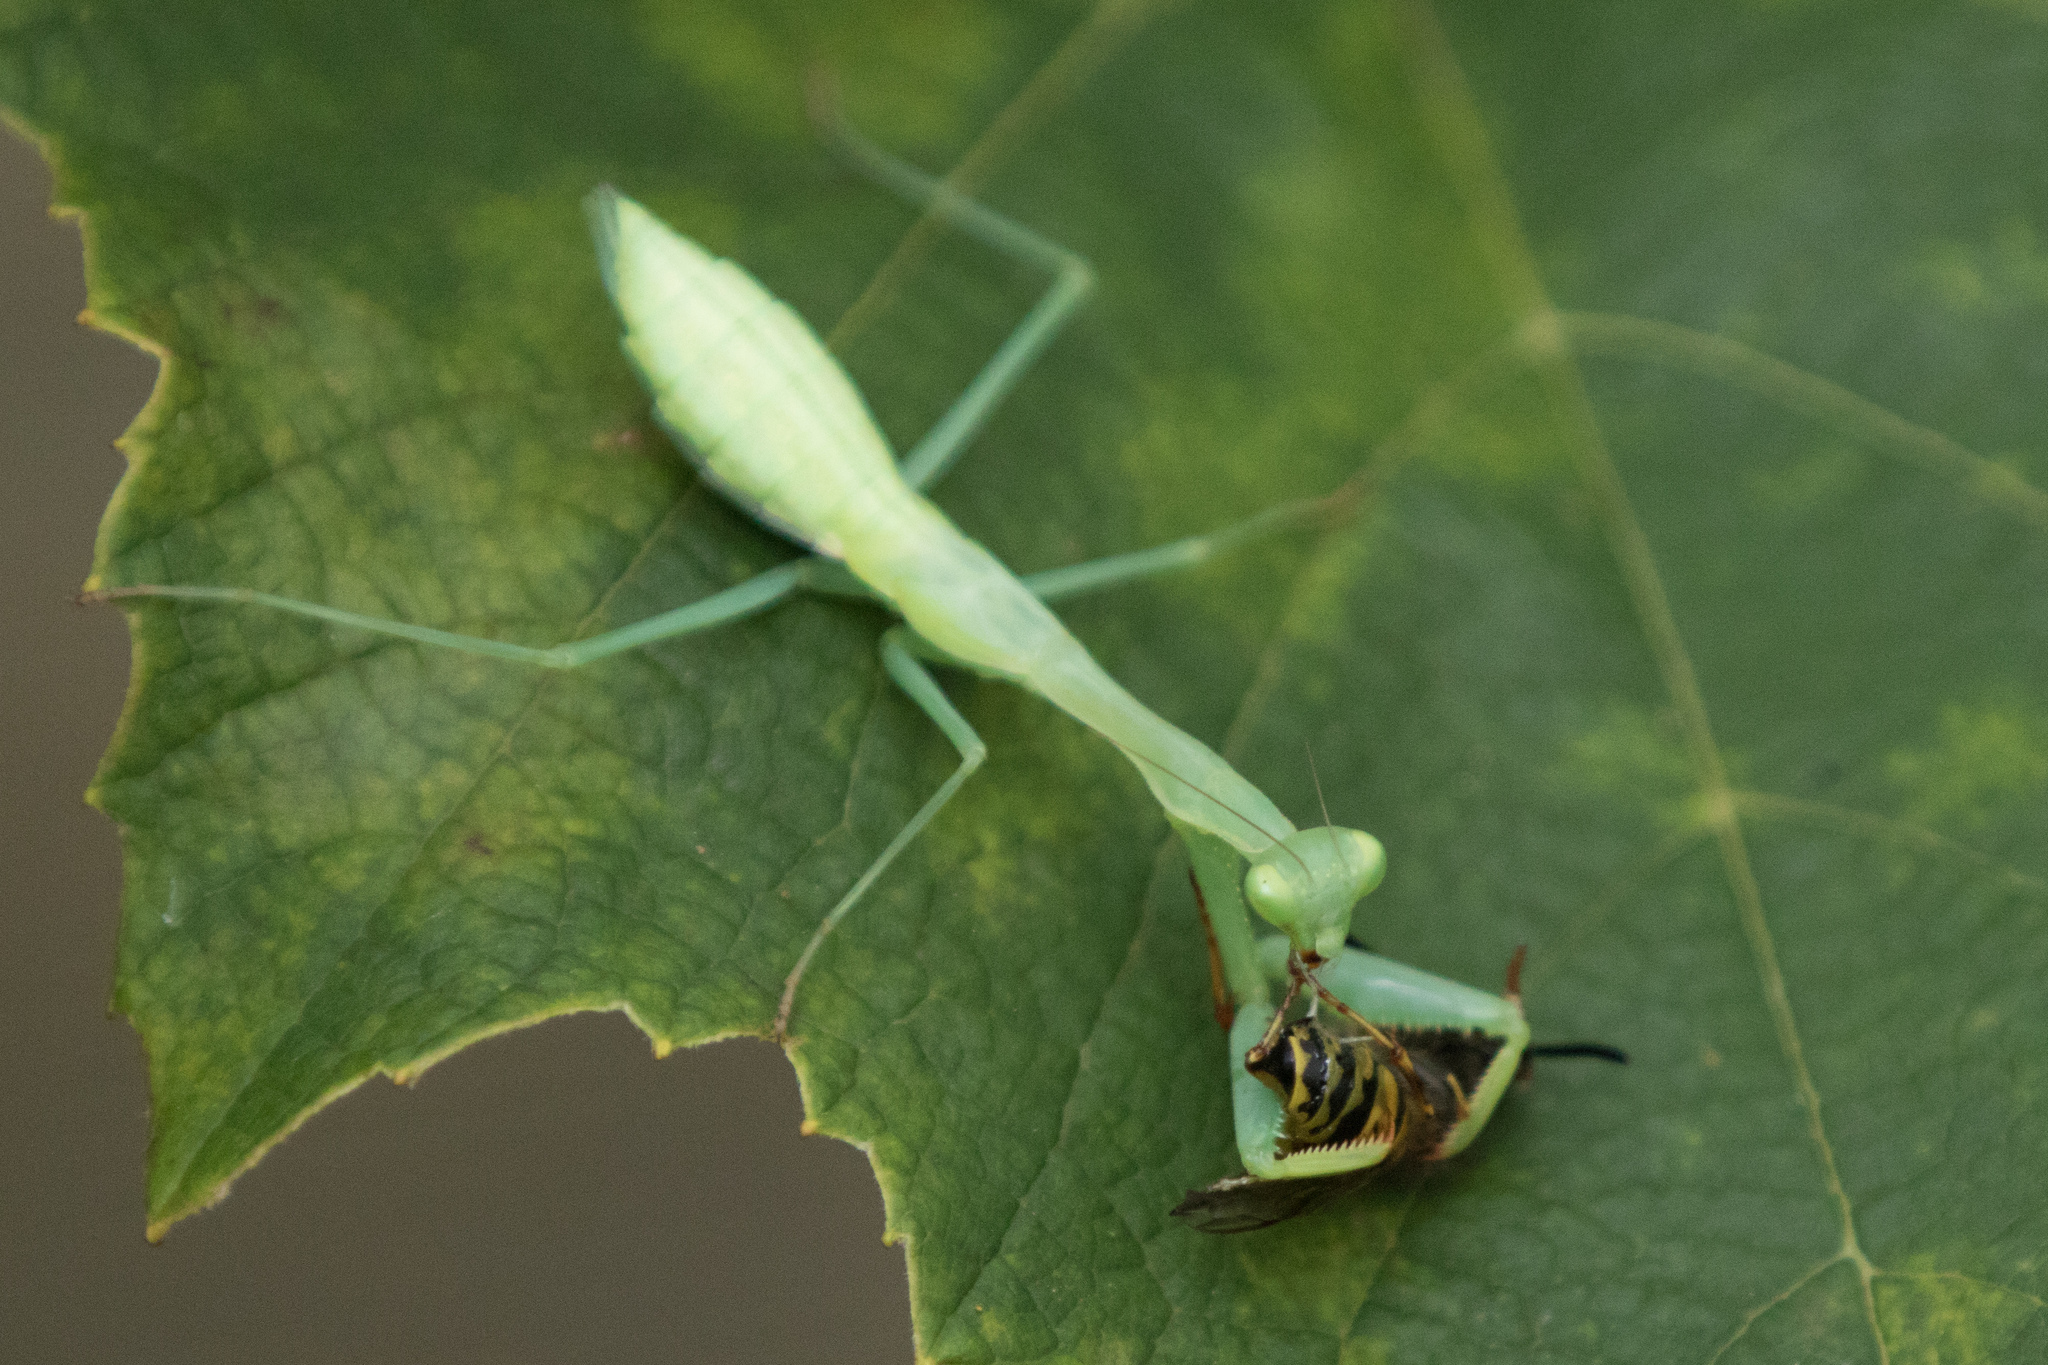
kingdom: Animalia
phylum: Arthropoda
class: Insecta
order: Mantodea
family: Miomantidae
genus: Miomantis
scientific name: Miomantis caffra
